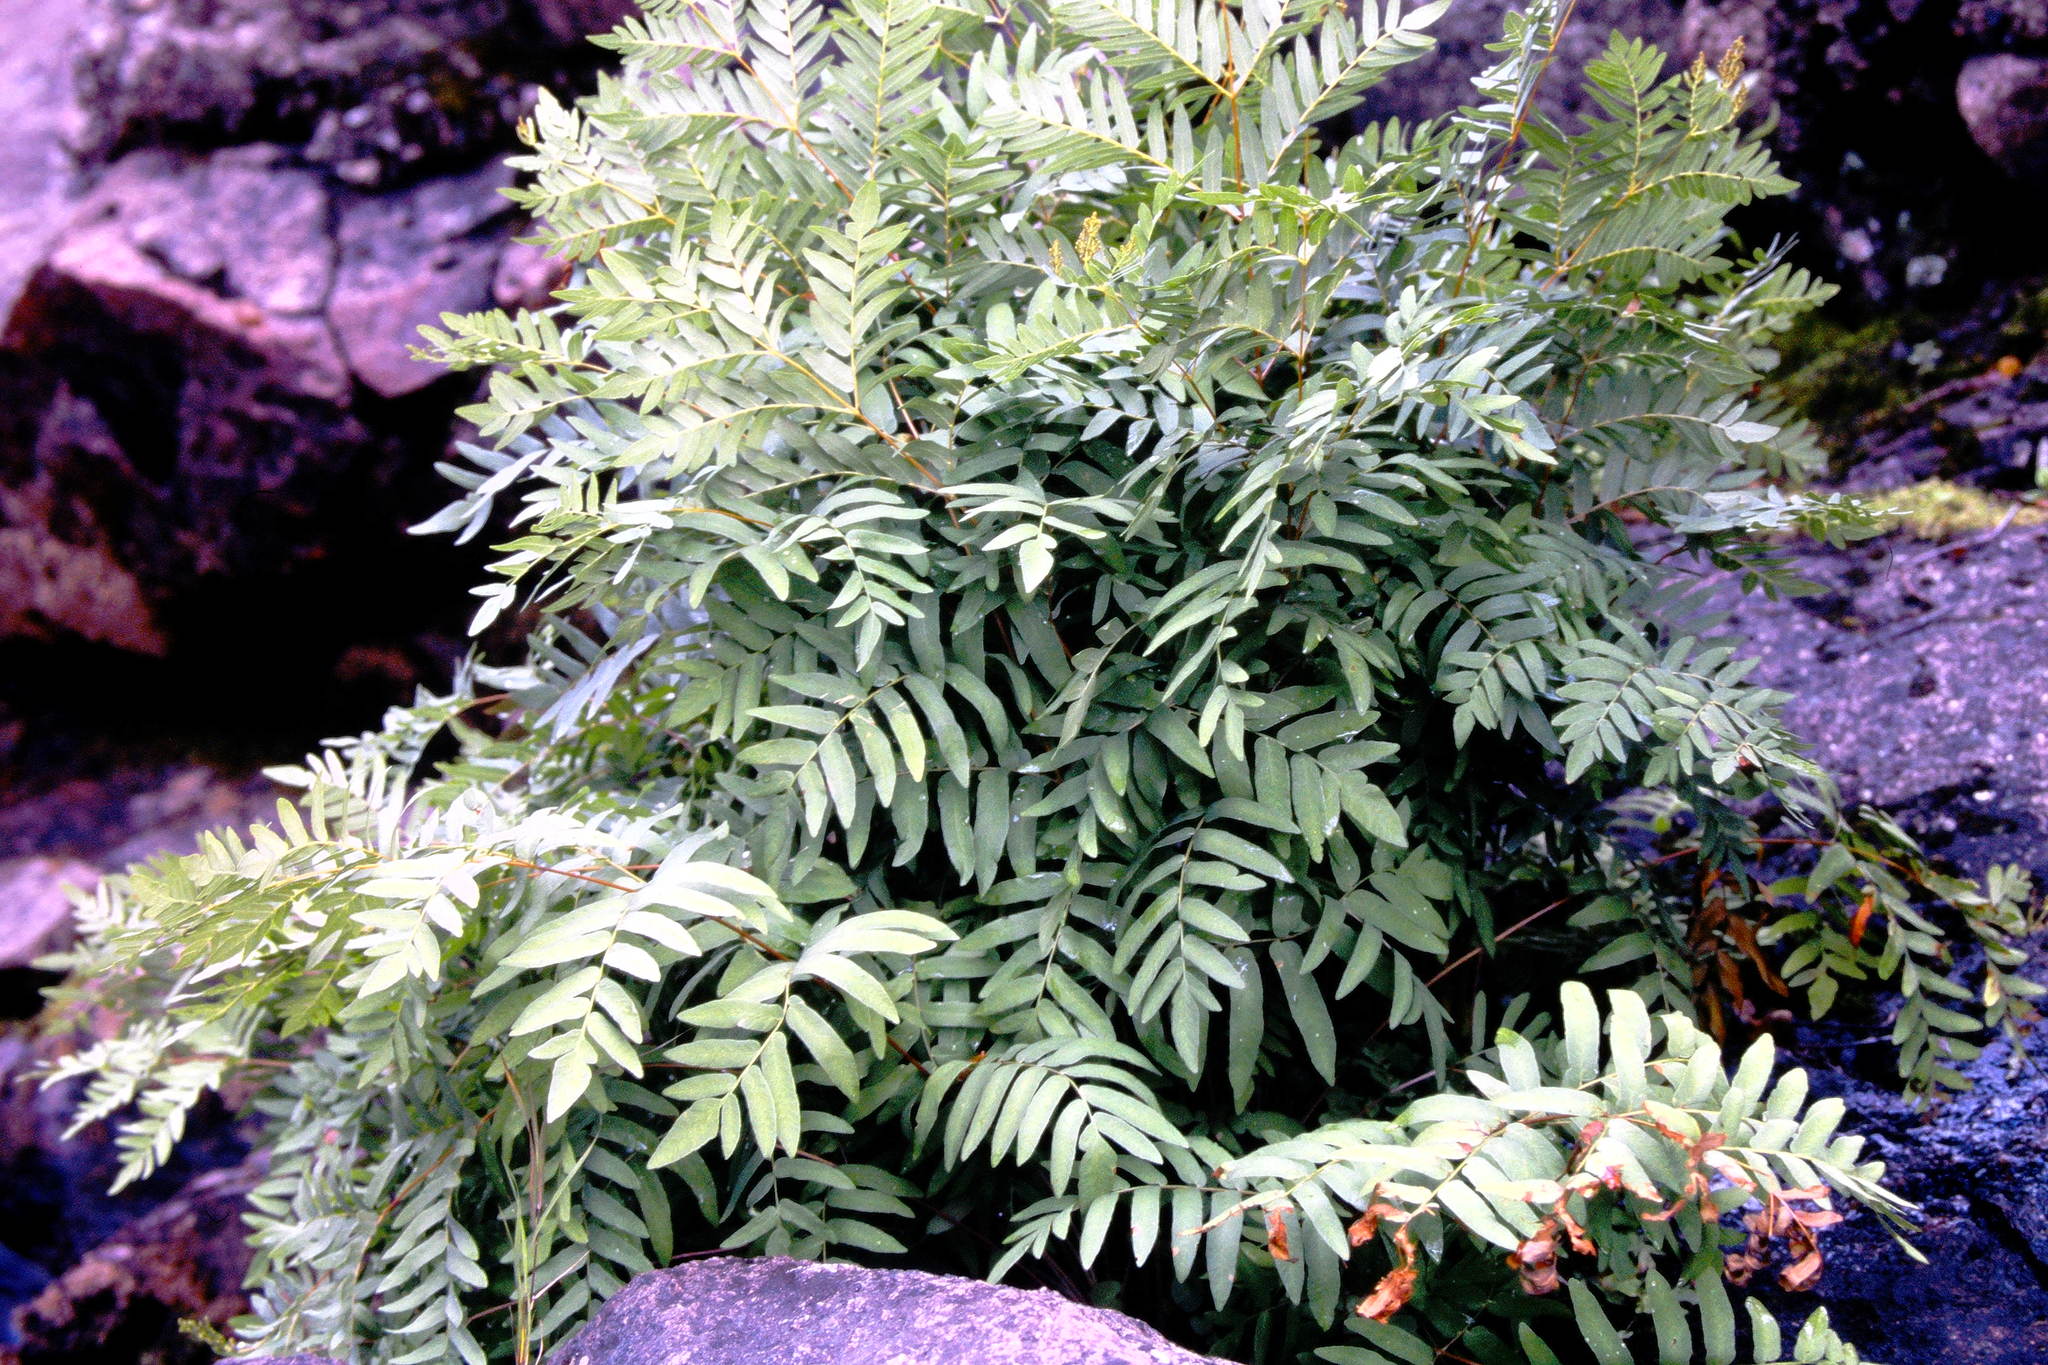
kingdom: Plantae
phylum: Tracheophyta
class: Polypodiopsida
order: Osmundales
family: Osmundaceae
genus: Osmunda
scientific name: Osmunda spectabilis
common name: American royal fern
